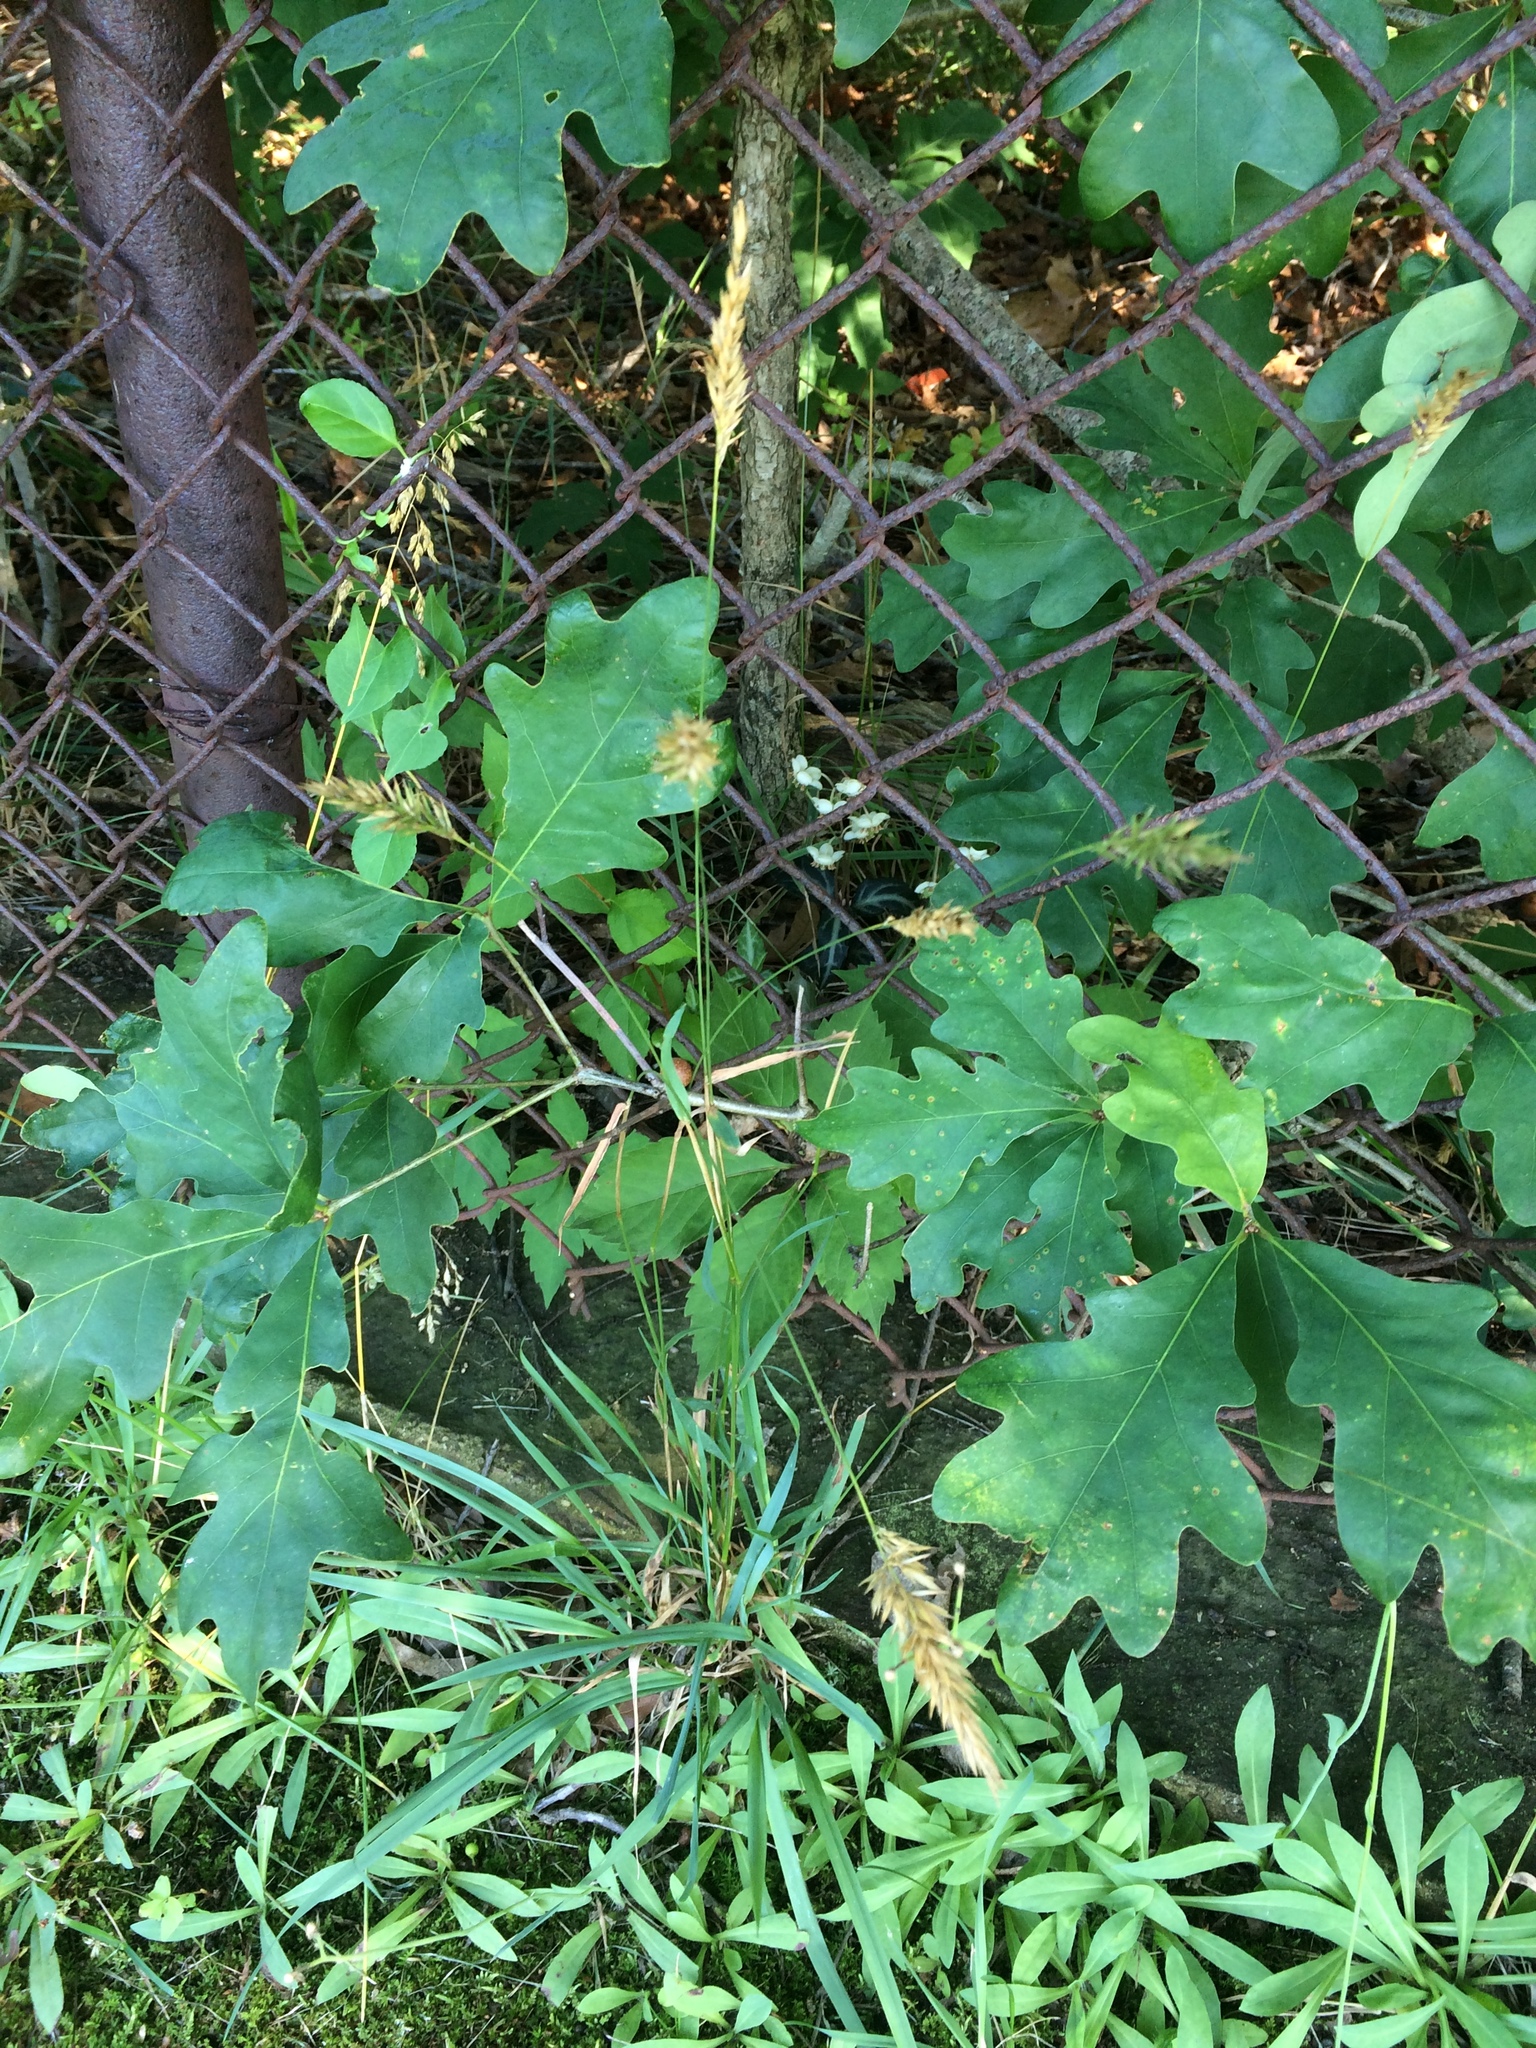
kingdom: Plantae
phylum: Tracheophyta
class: Liliopsida
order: Poales
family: Poaceae
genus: Anthoxanthum
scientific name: Anthoxanthum odoratum
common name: Sweet vernalgrass
